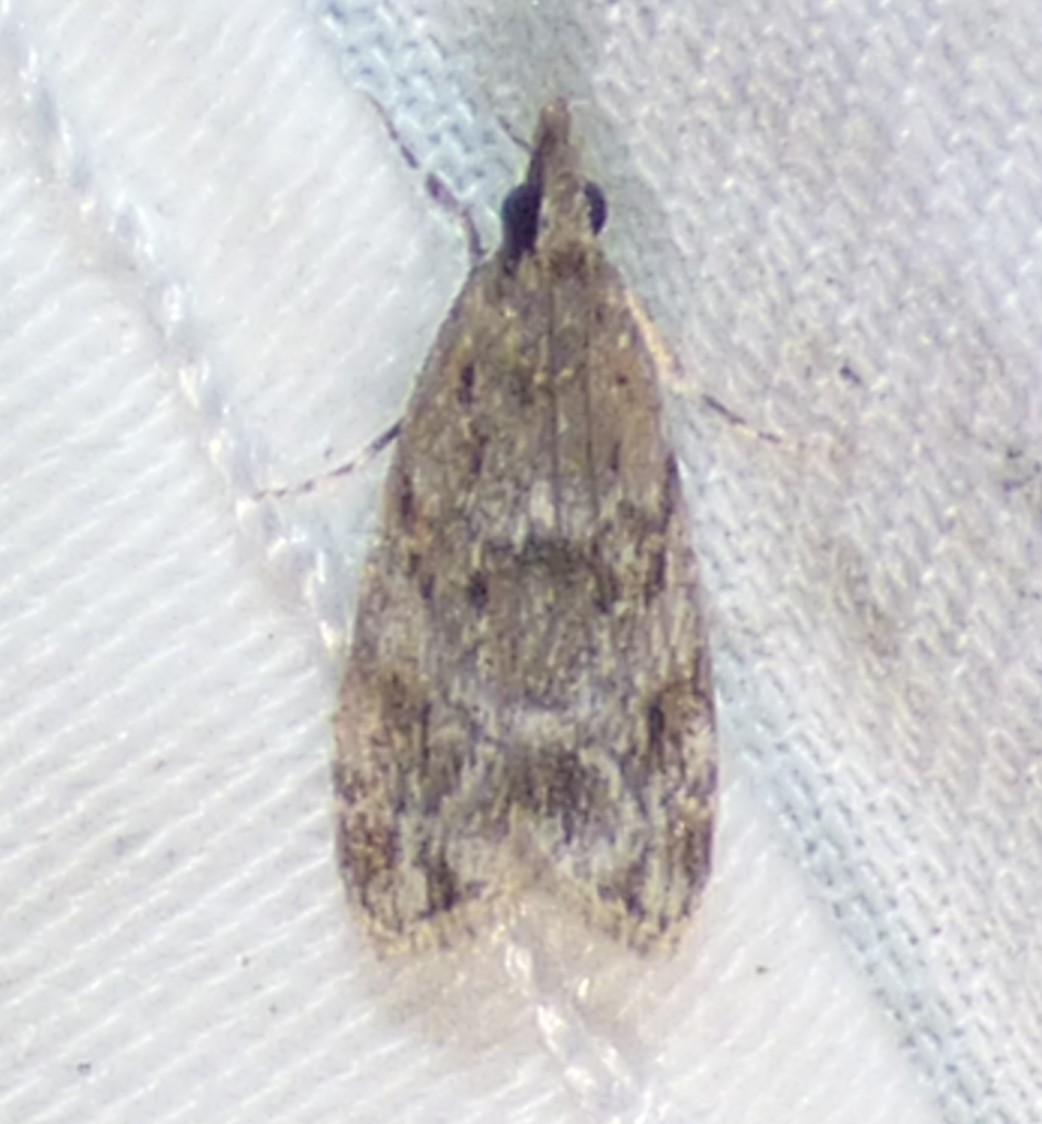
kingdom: Animalia
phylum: Arthropoda
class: Insecta
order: Lepidoptera
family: Crambidae
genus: Eudonia
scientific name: Eudonia heterosalis
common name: Mcdunnough's eudonia
